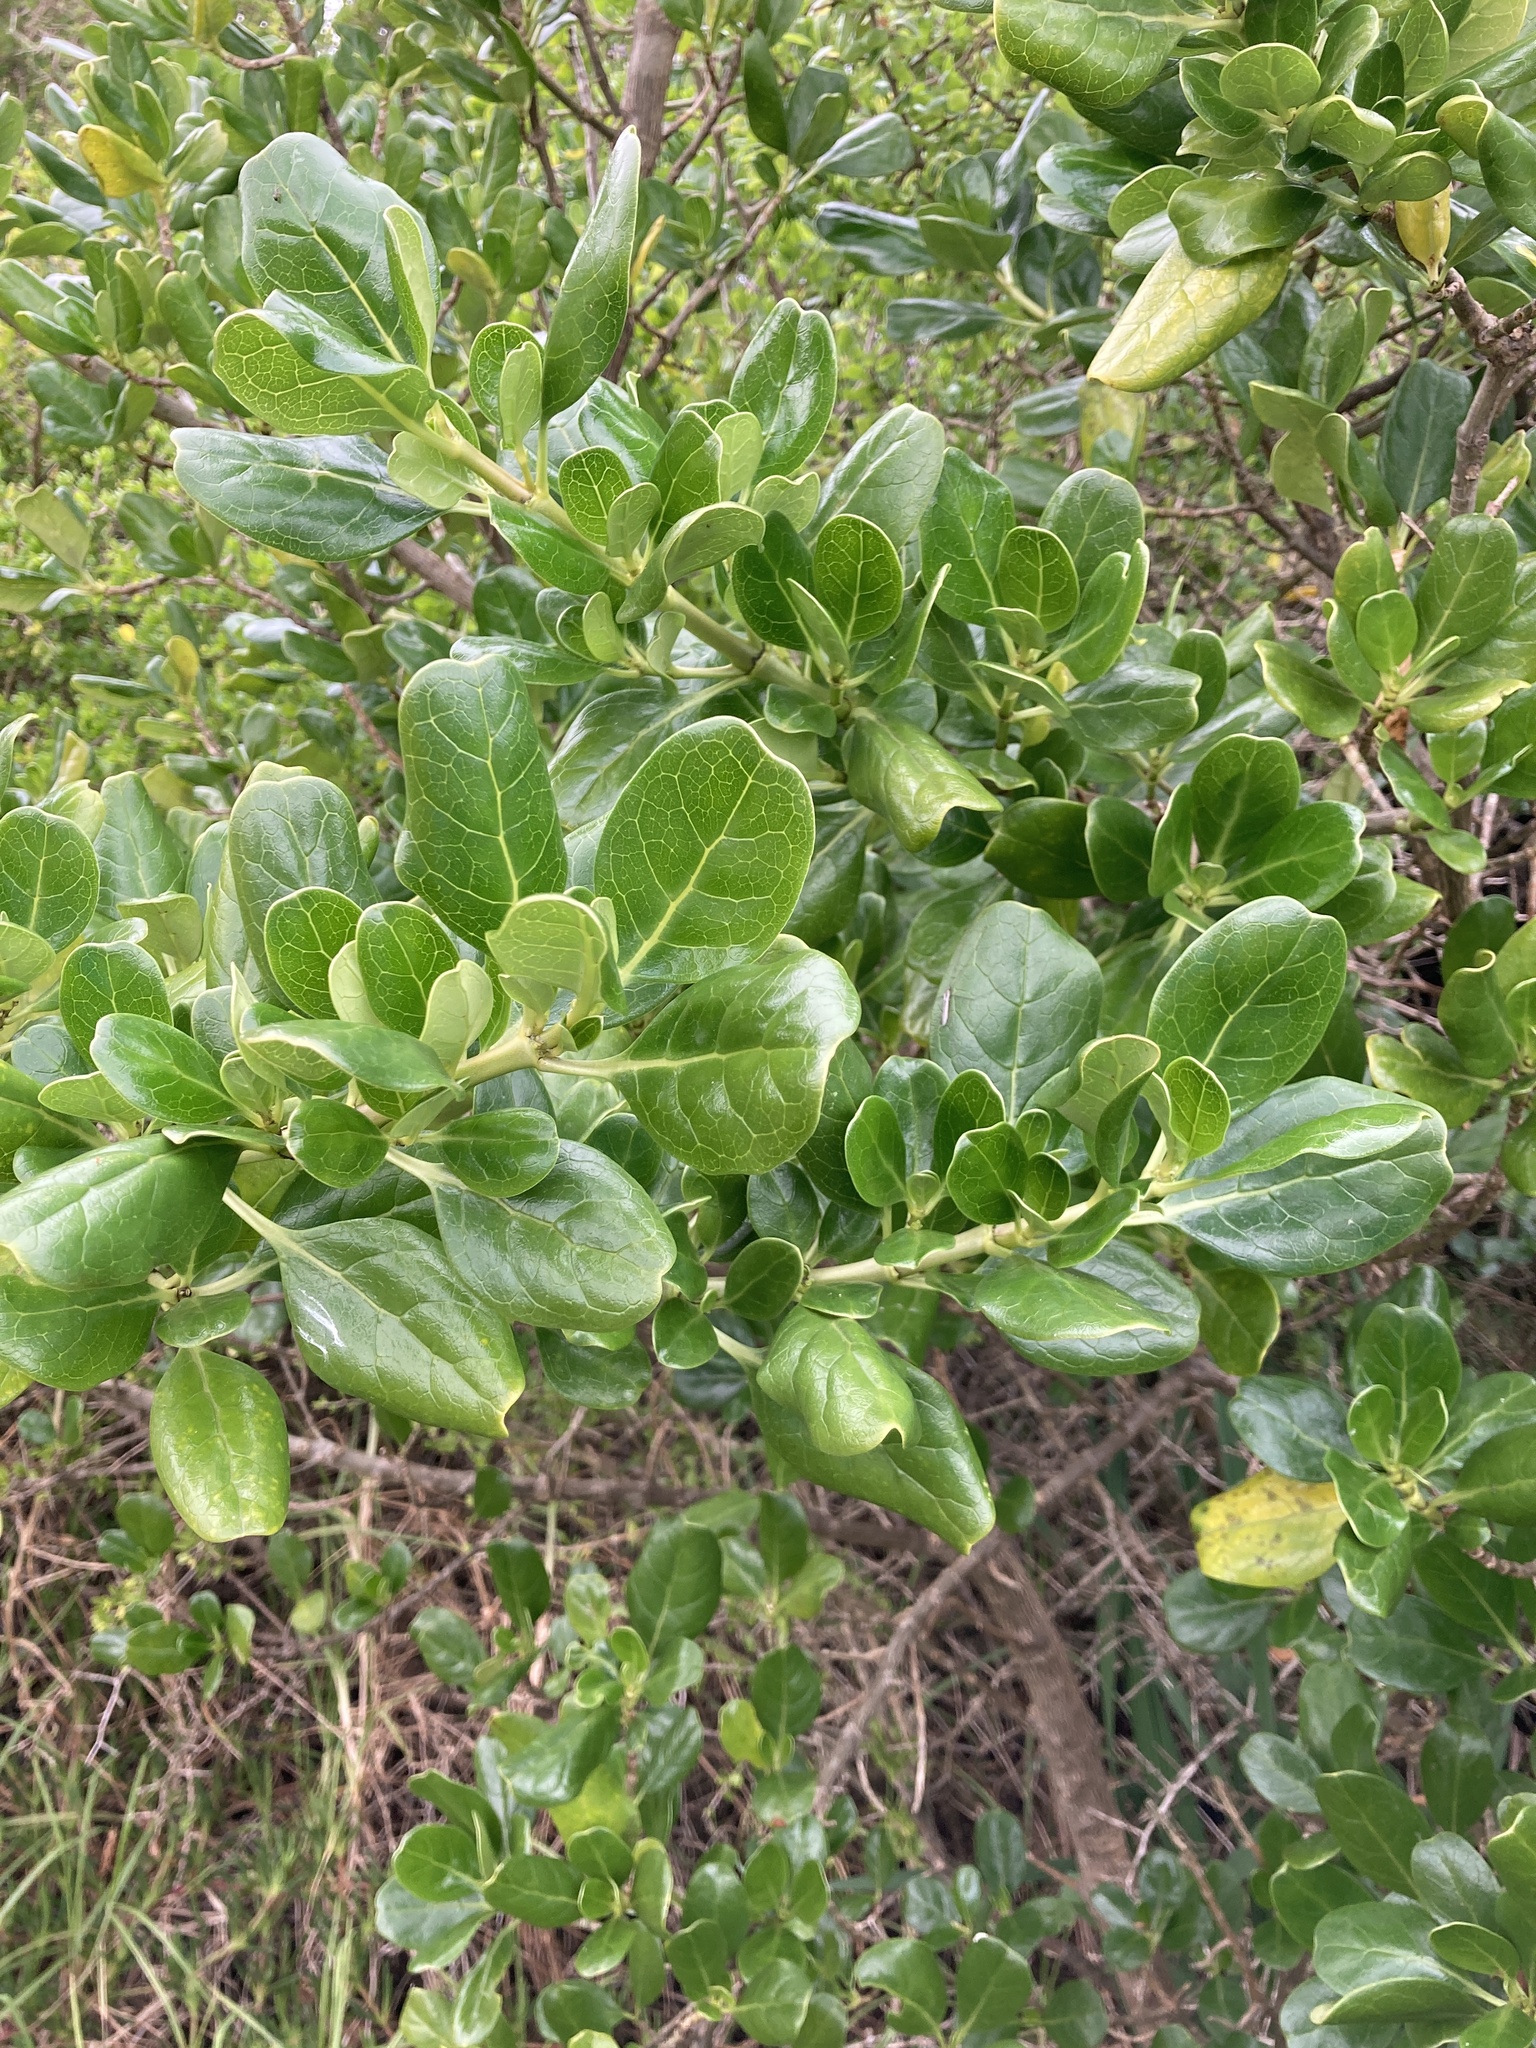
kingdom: Plantae
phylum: Tracheophyta
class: Magnoliopsida
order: Gentianales
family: Rubiaceae
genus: Coprosma
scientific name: Coprosma repens
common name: Tree bedstraw
